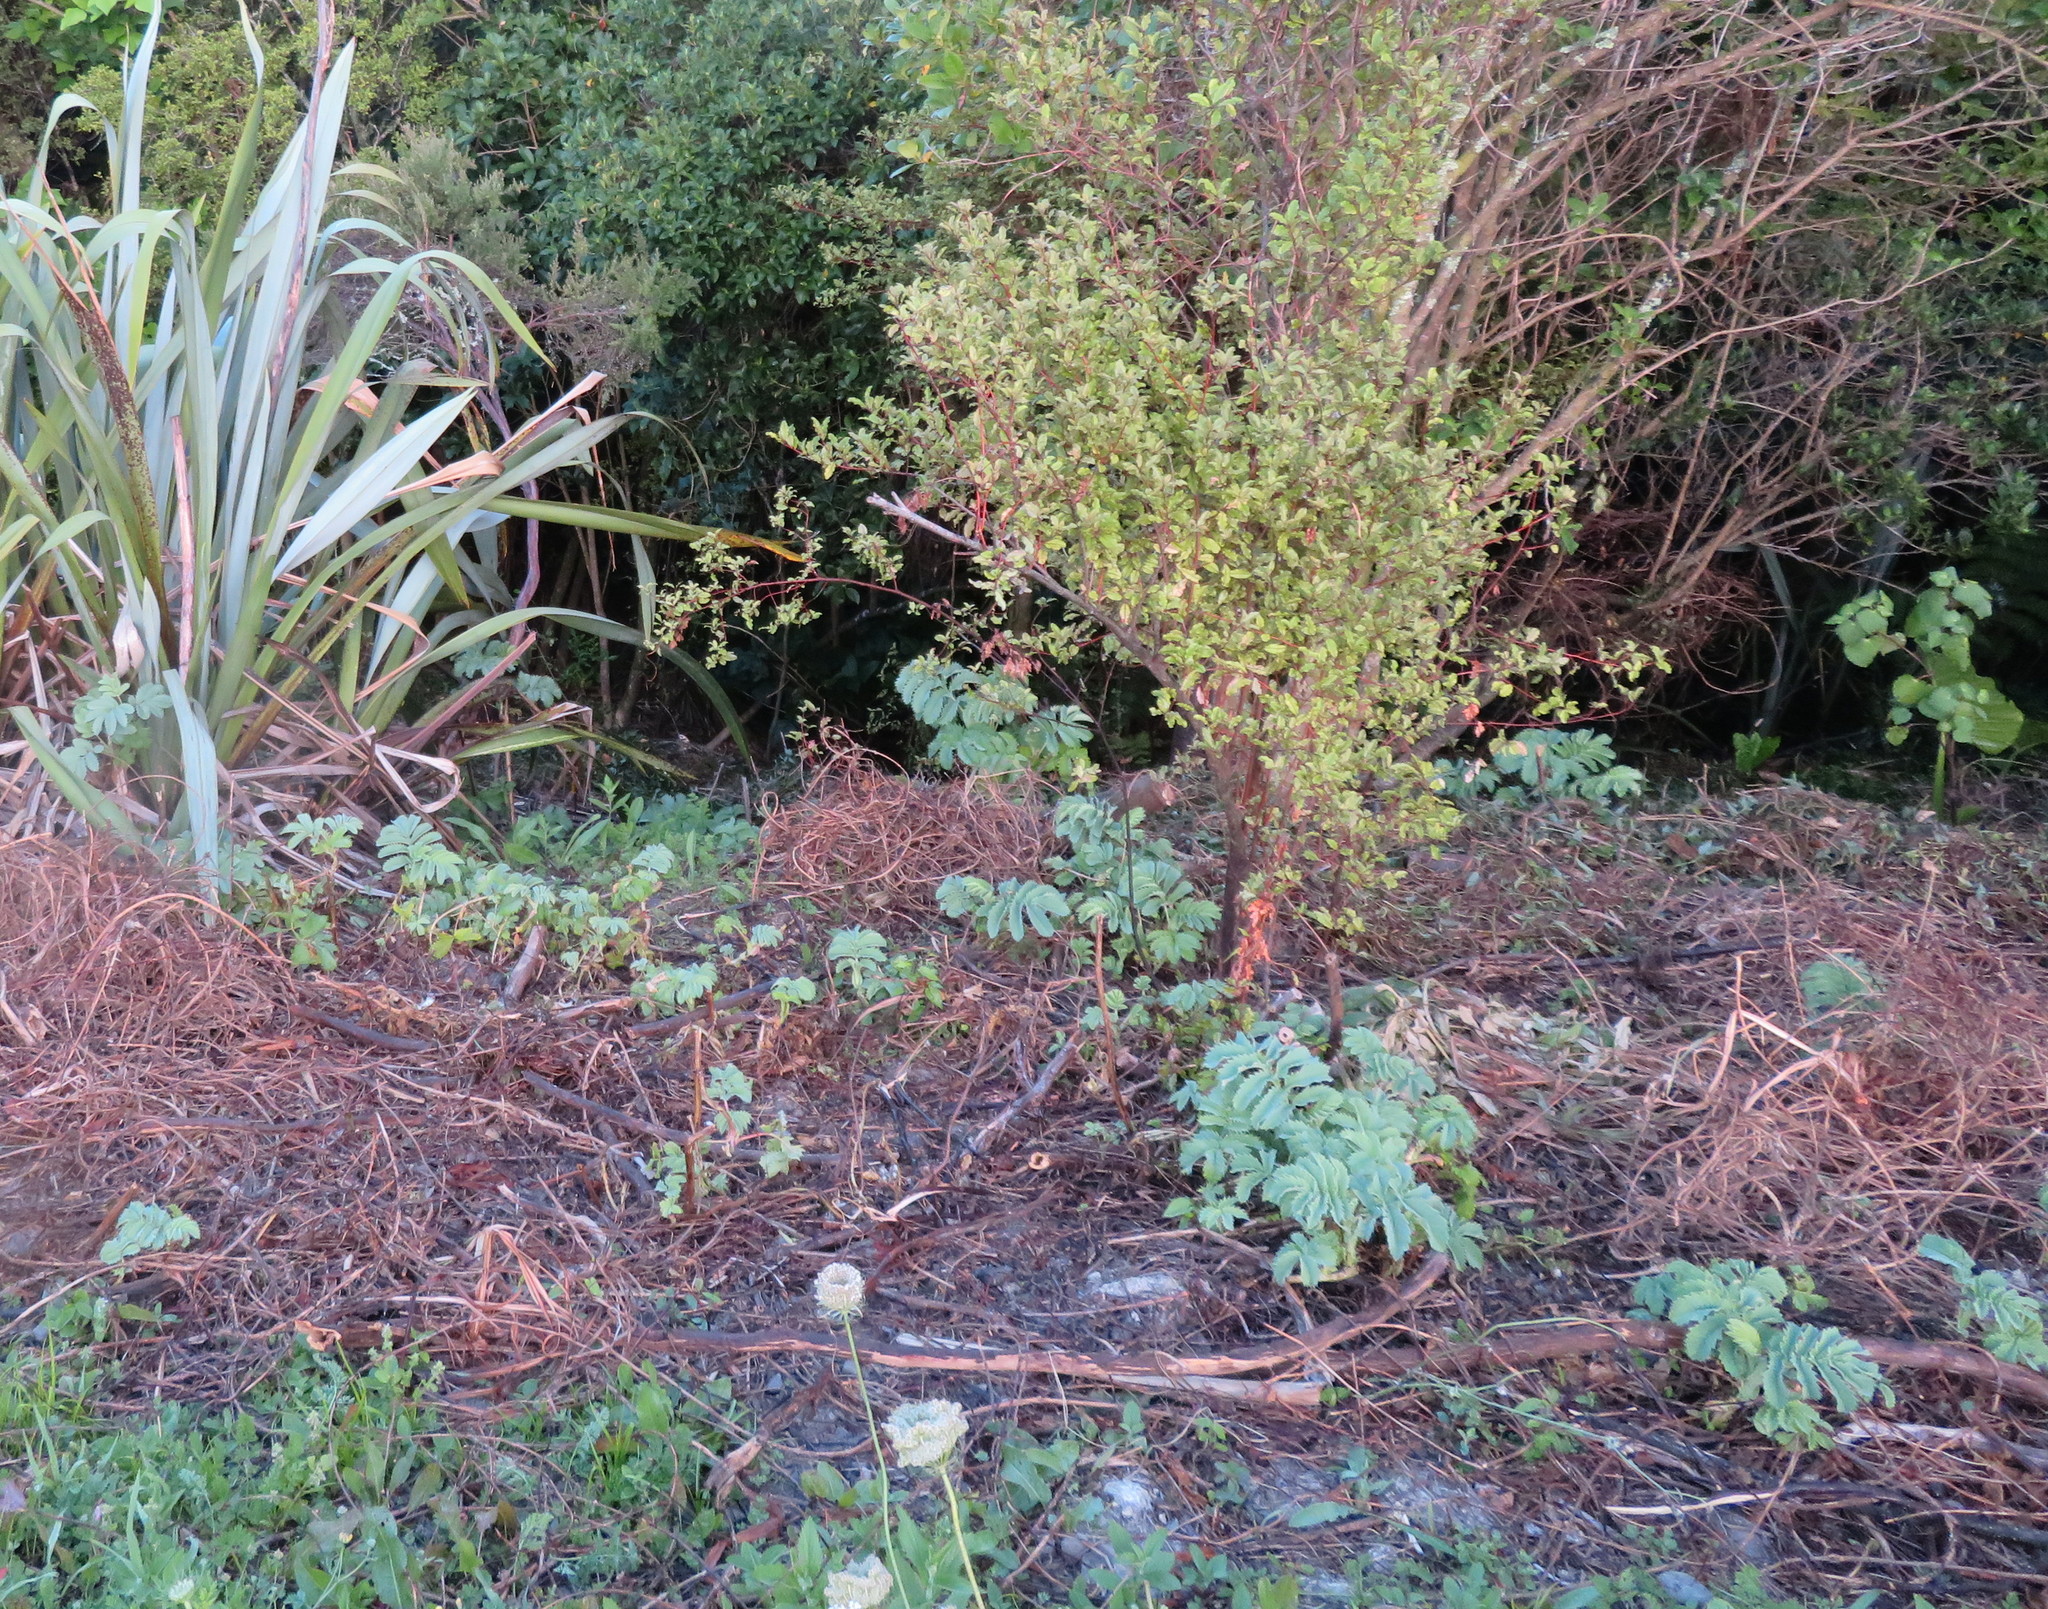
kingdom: Plantae
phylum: Tracheophyta
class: Magnoliopsida
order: Geraniales
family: Melianthaceae
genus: Melianthus
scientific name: Melianthus major
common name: Honey-flower
